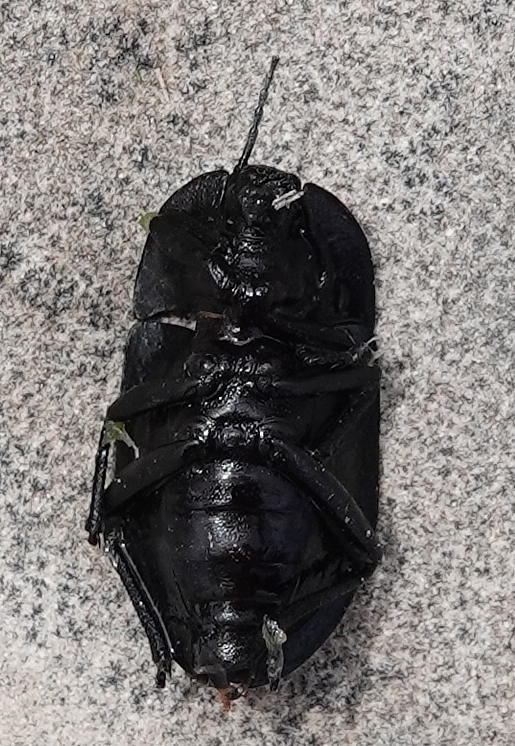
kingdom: Animalia
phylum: Arthropoda
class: Insecta
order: Coleoptera
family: Tenebrionidae
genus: Embaphion
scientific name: Embaphion muricatum
